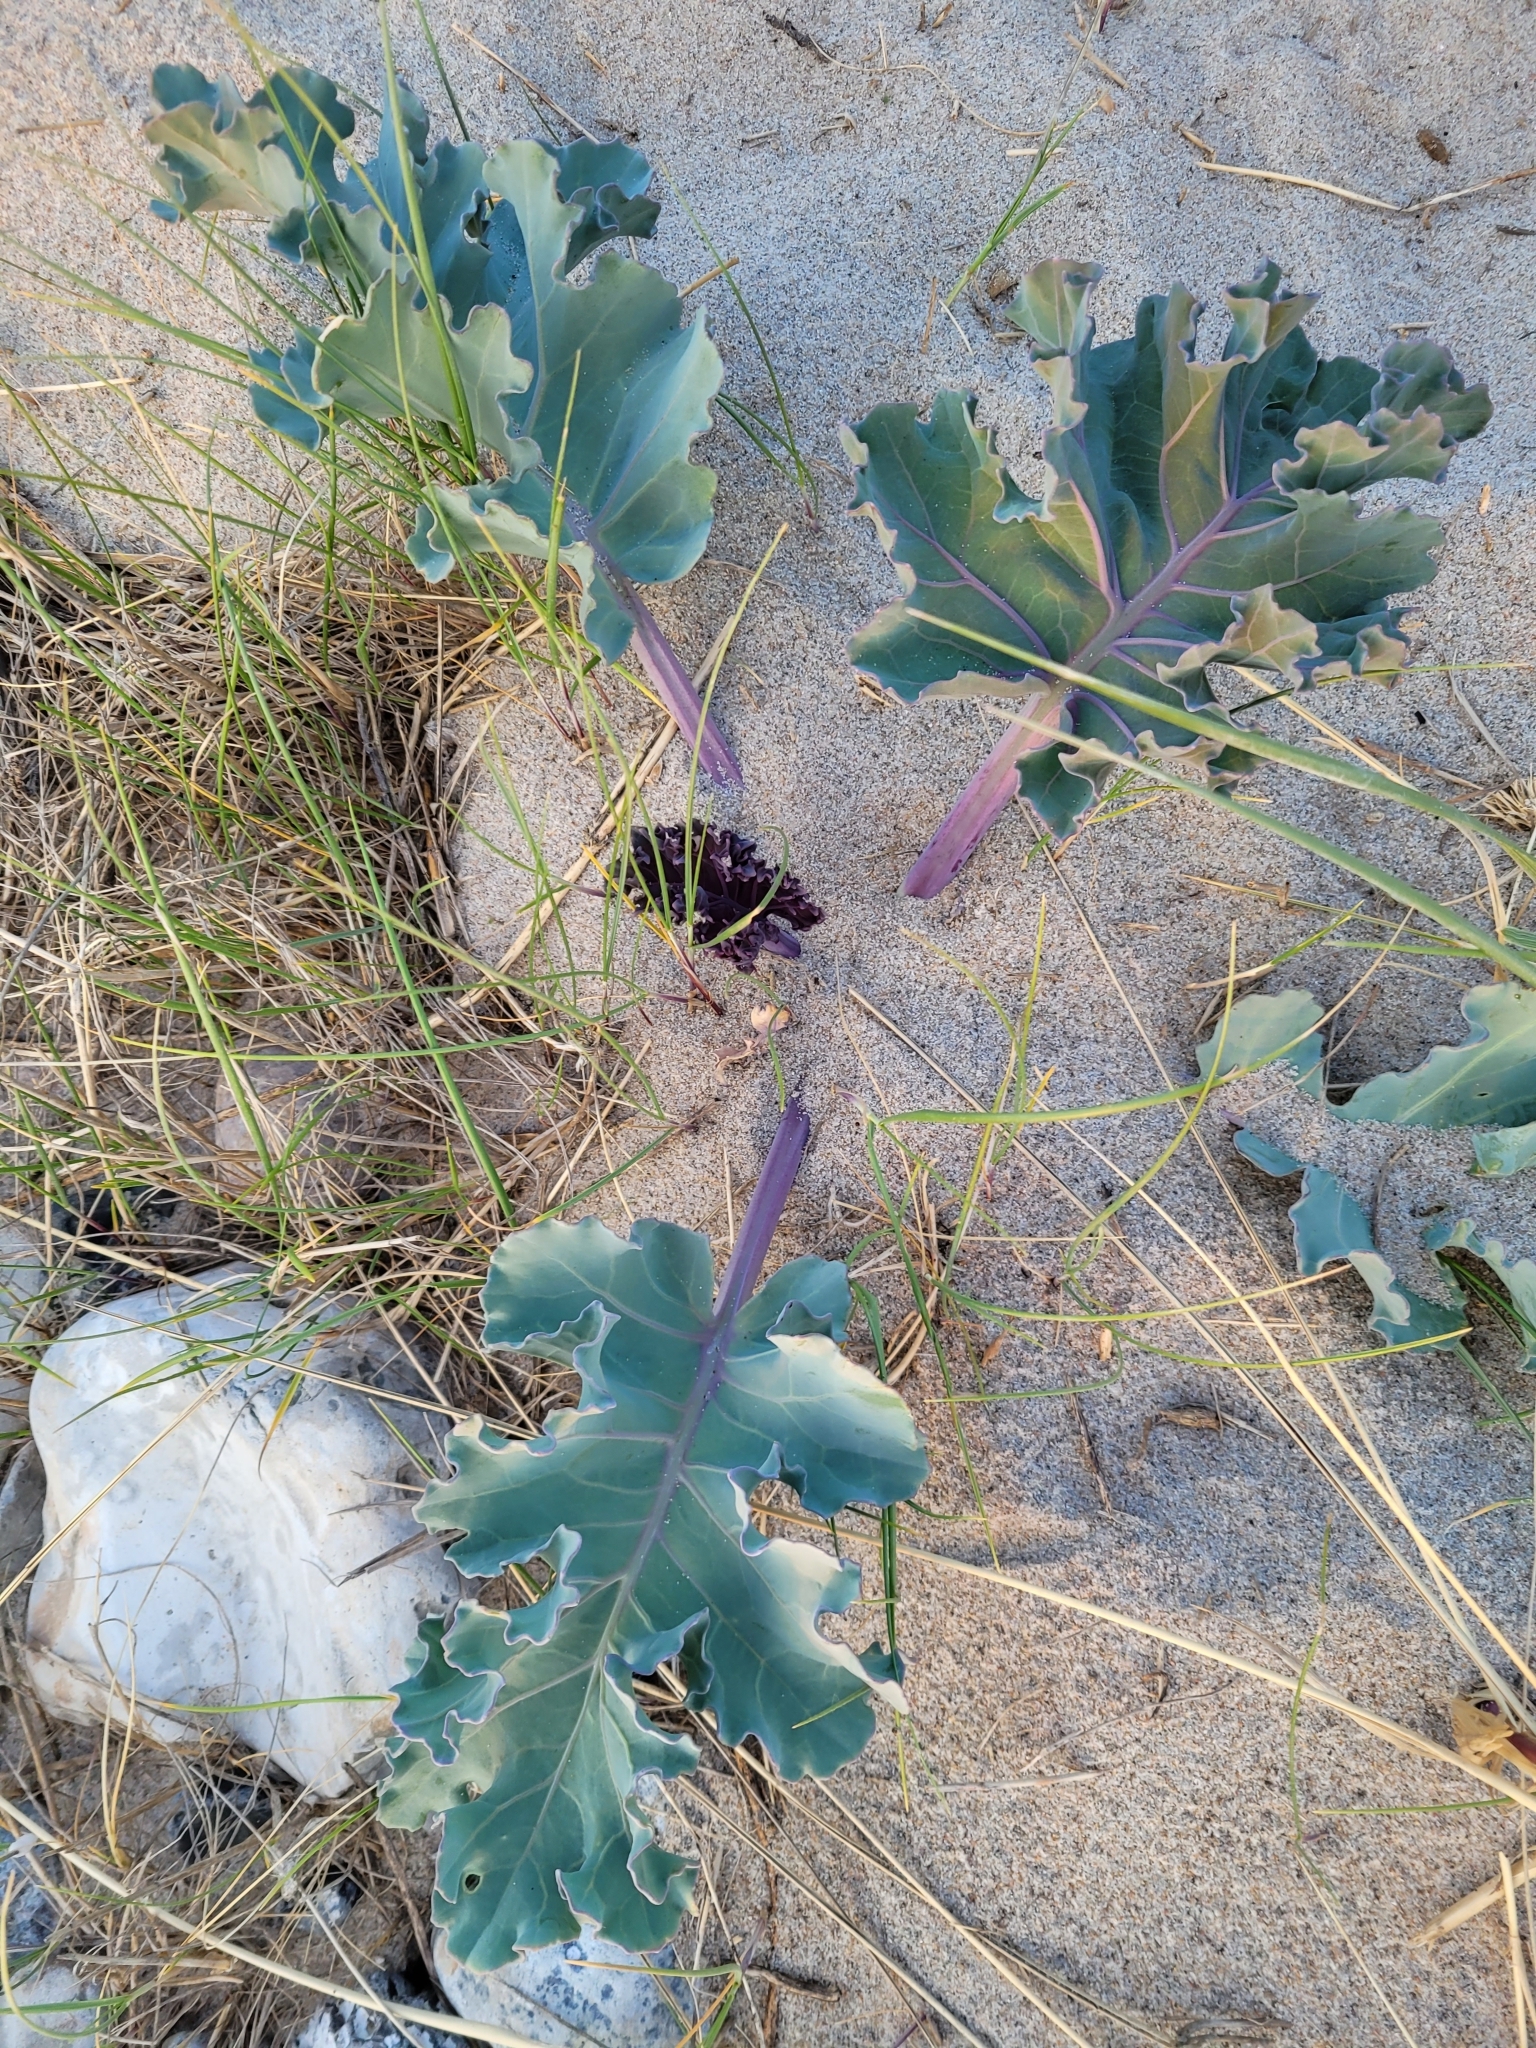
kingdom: Plantae
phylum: Tracheophyta
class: Magnoliopsida
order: Brassicales
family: Brassicaceae
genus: Crambe
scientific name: Crambe maritima
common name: Sea-kale
